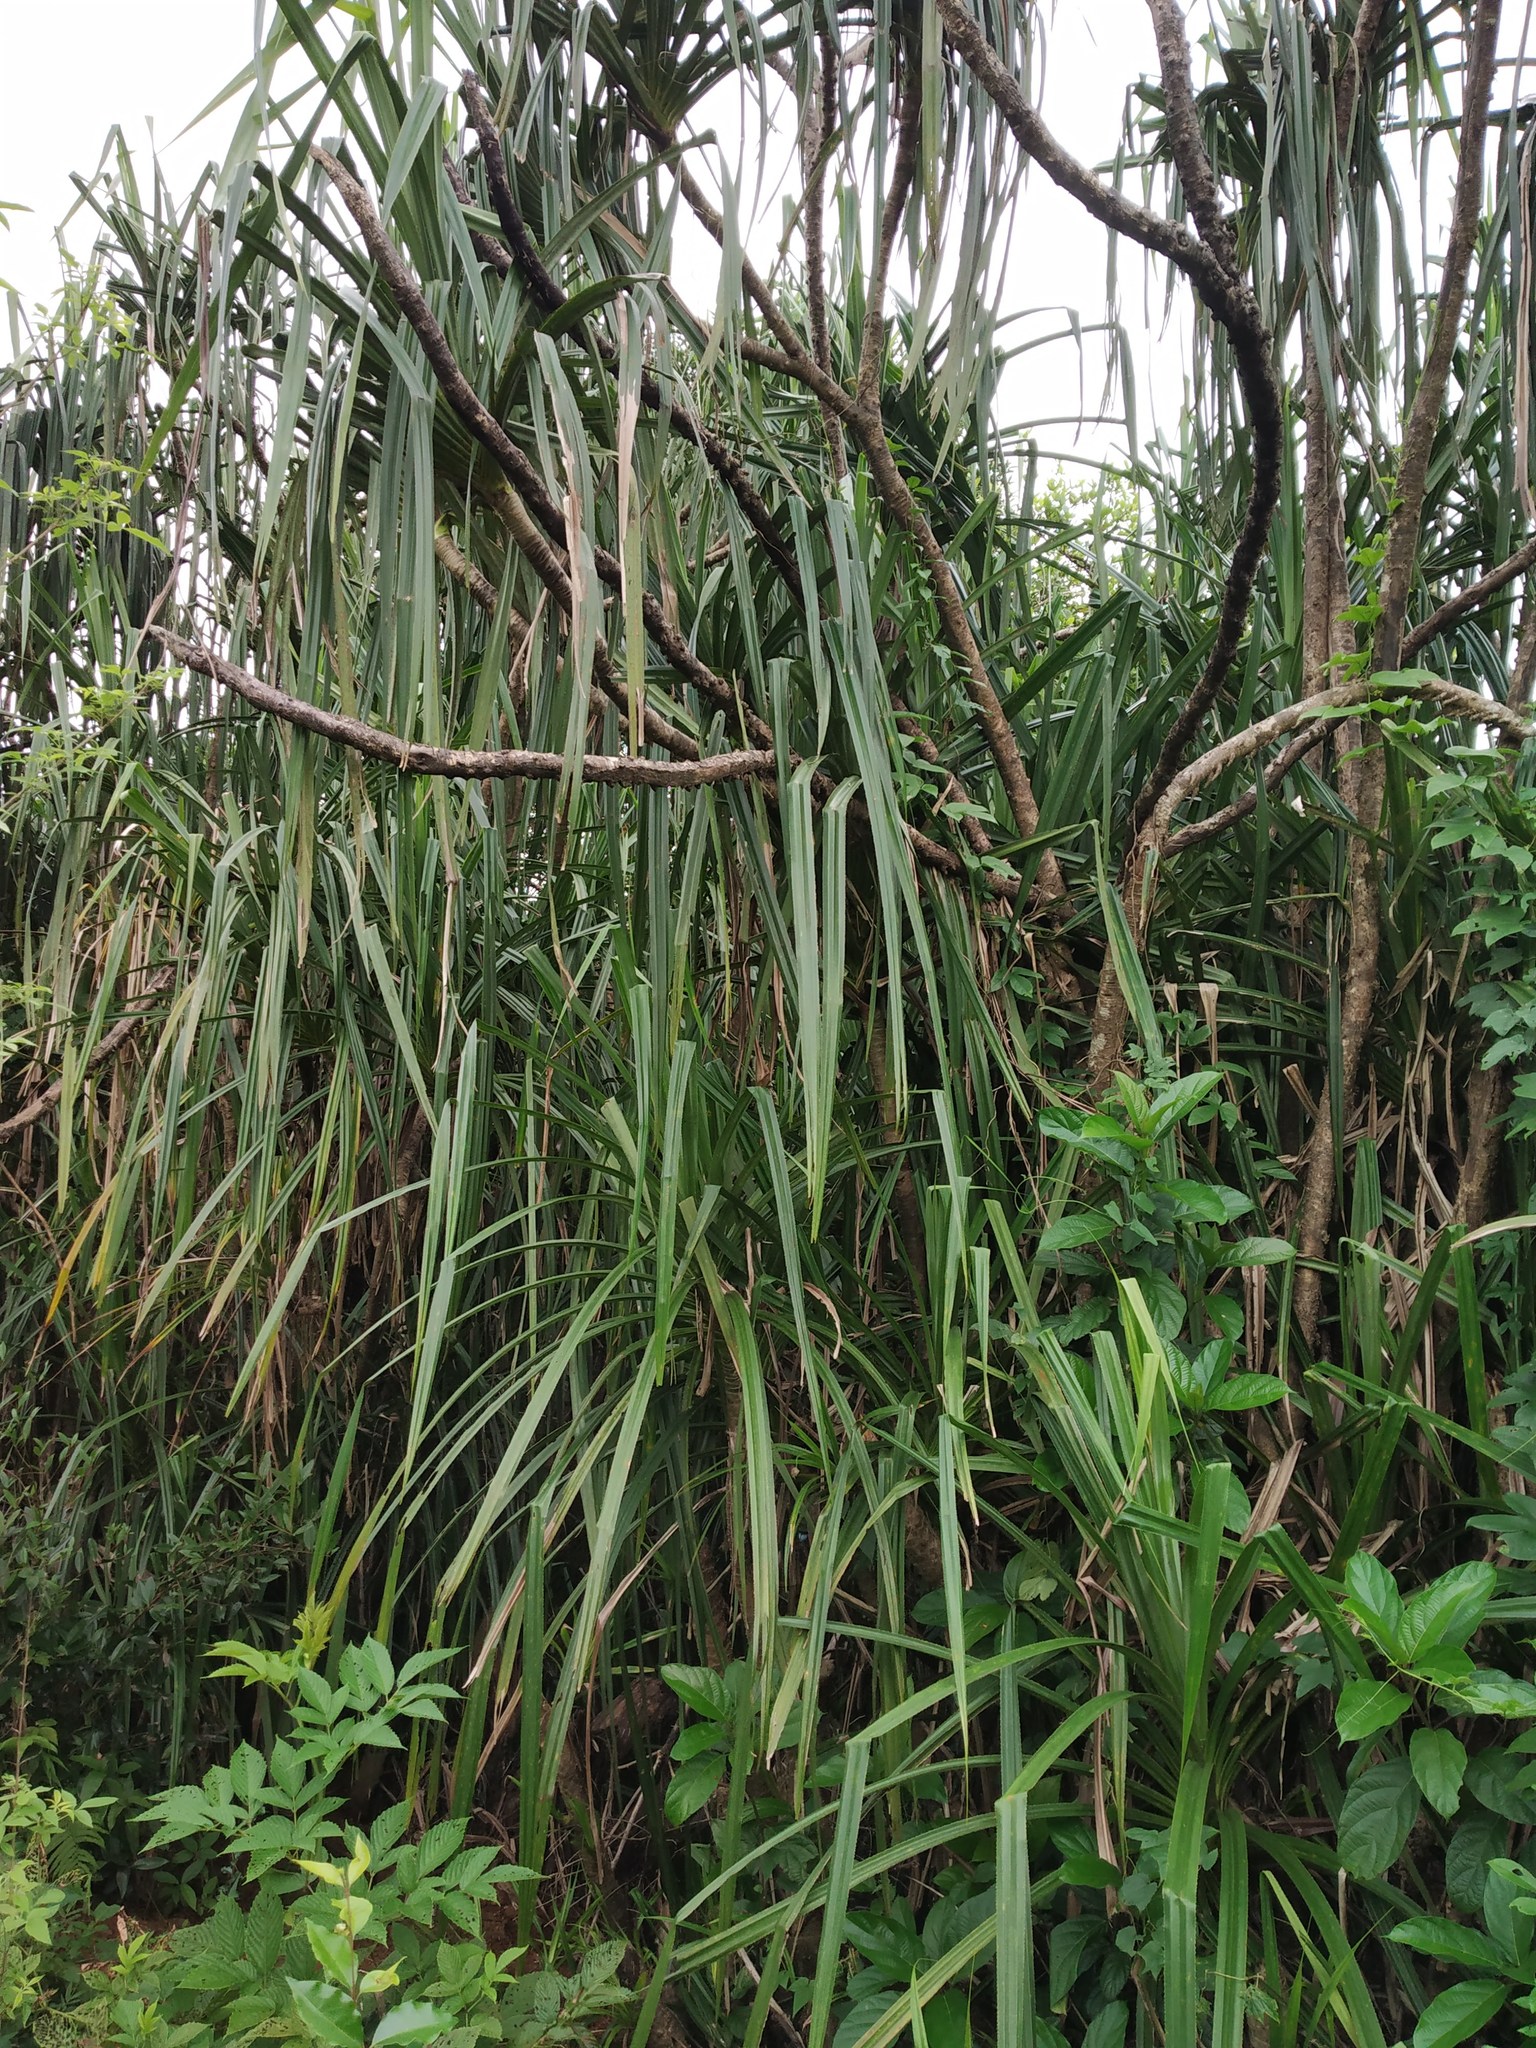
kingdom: Plantae
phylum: Tracheophyta
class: Liliopsida
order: Pandanales
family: Pandanaceae
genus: Pandanus
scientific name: Pandanus furcatus
